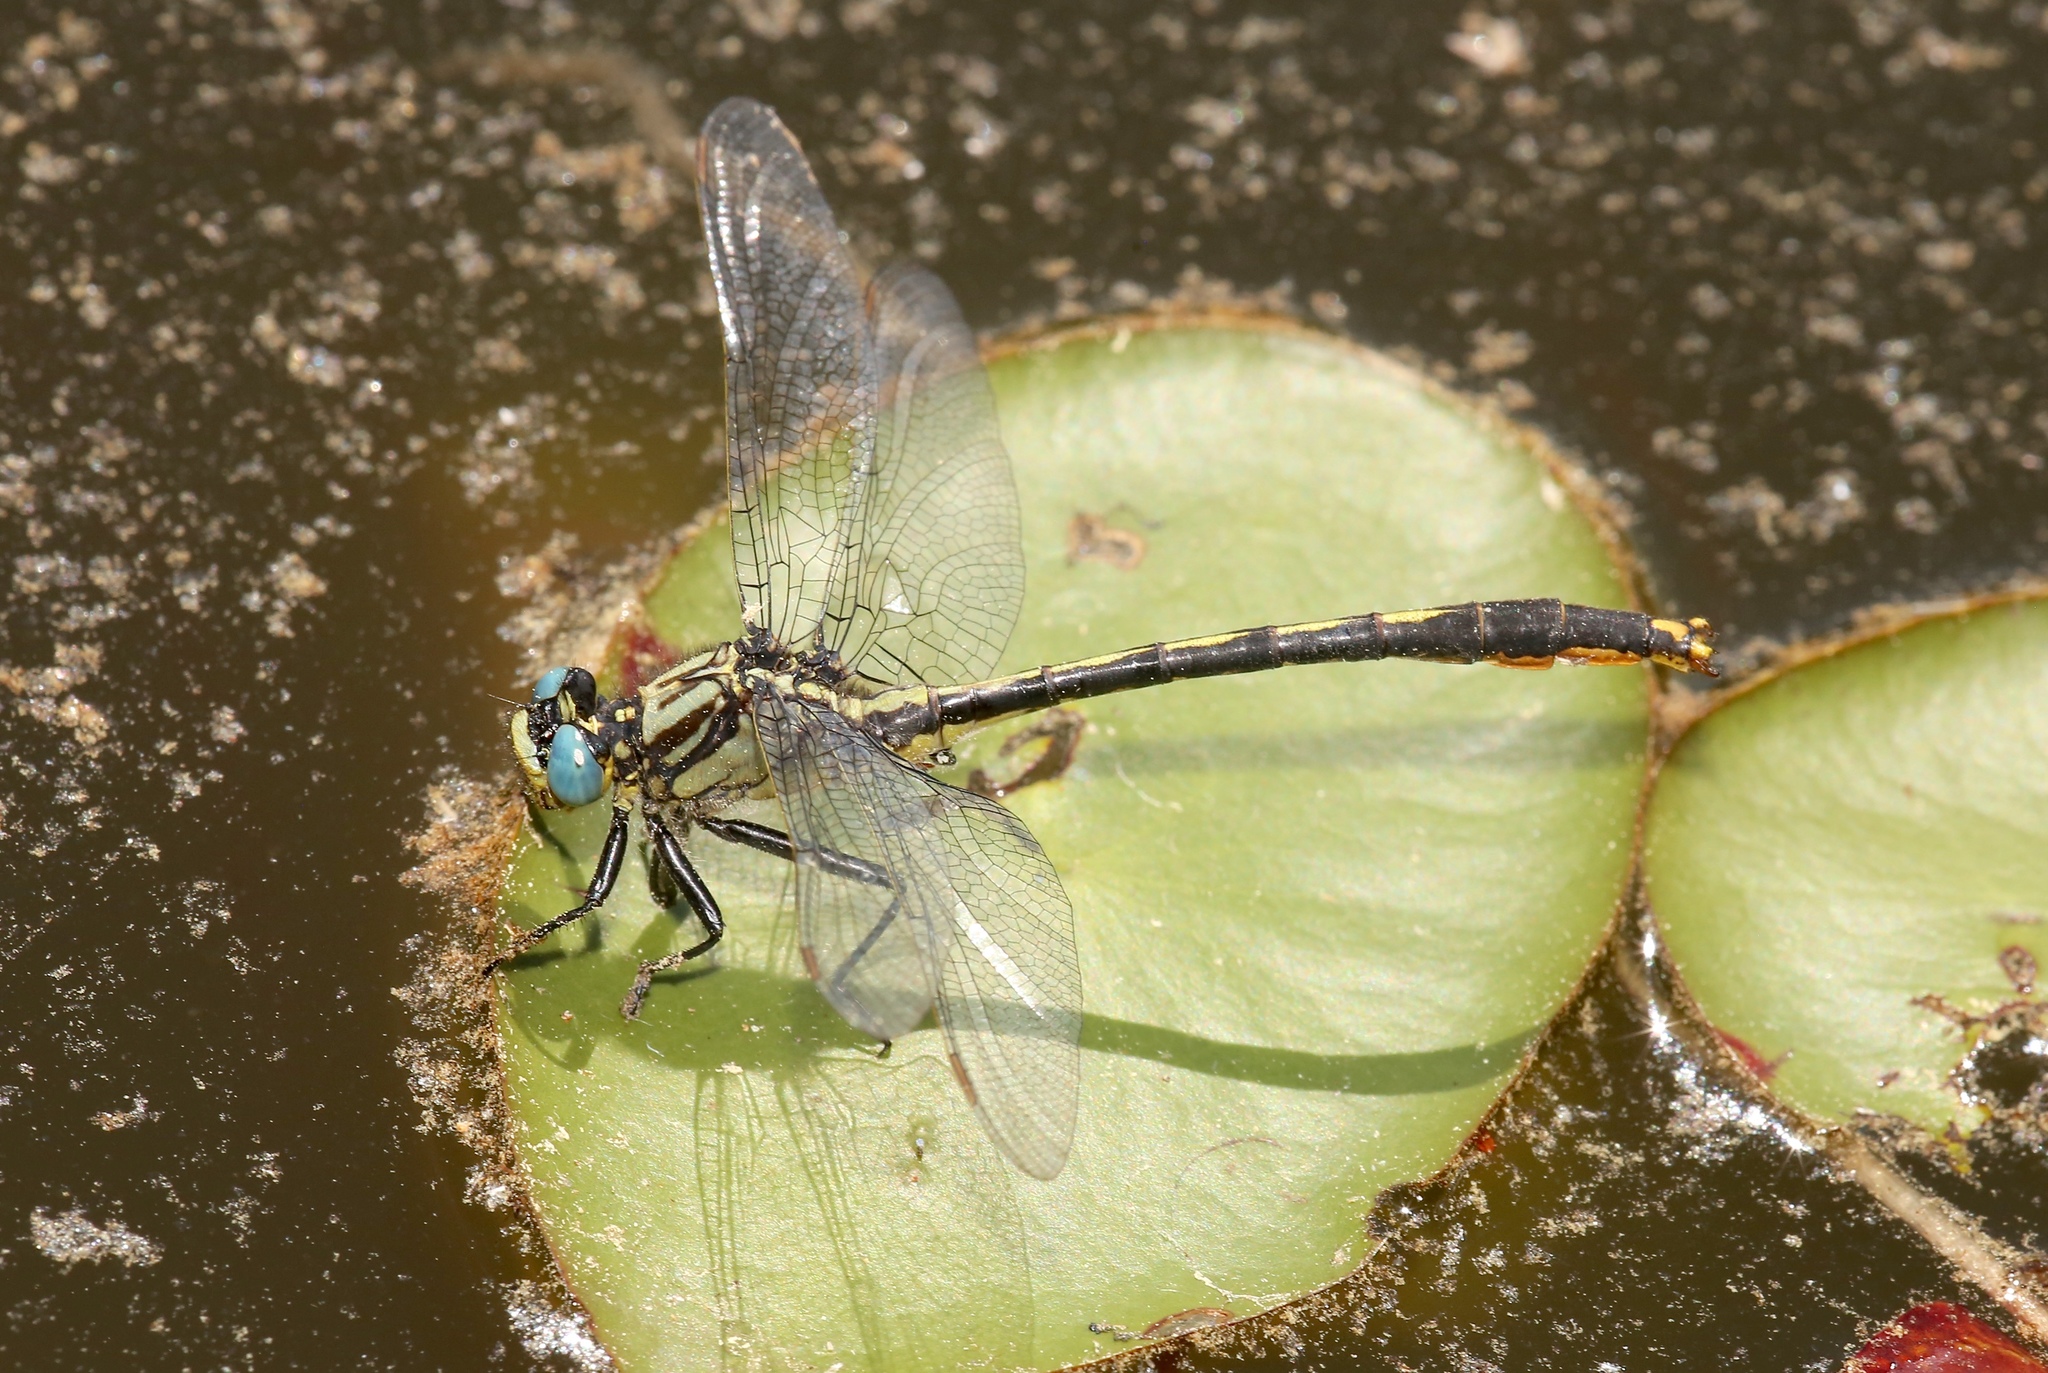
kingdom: Animalia
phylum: Arthropoda
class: Insecta
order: Odonata
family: Gomphidae
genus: Arigomphus
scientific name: Arigomphus furcifer
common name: Lilypad clubtail
